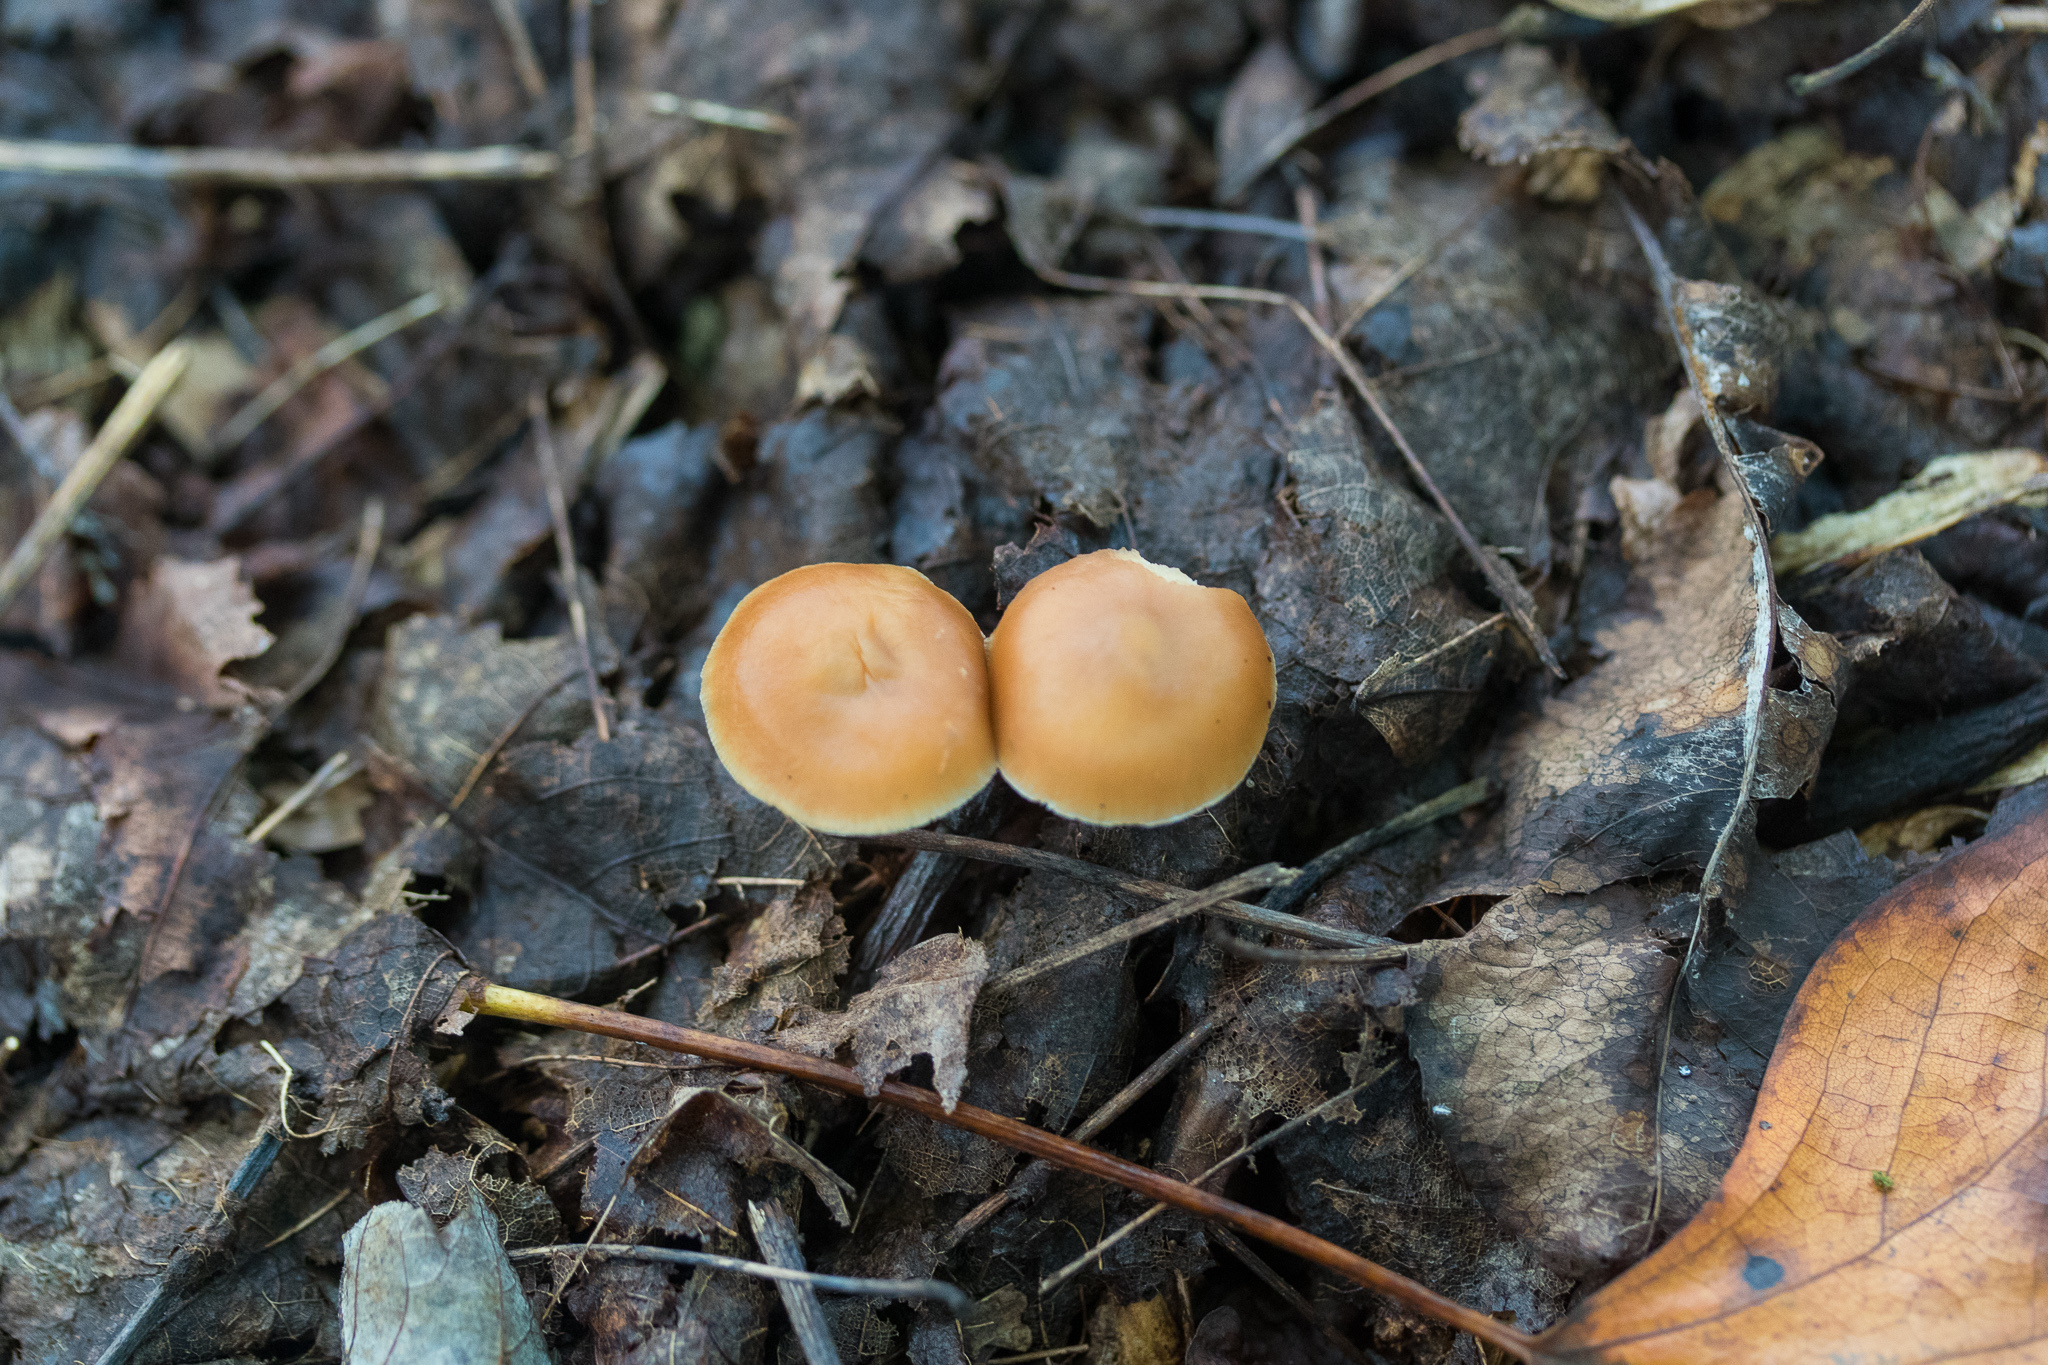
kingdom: Fungi
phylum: Basidiomycota
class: Agaricomycetes
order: Agaricales
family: Omphalotaceae
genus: Gymnopus
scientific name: Gymnopus dryophilus
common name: Penny top
